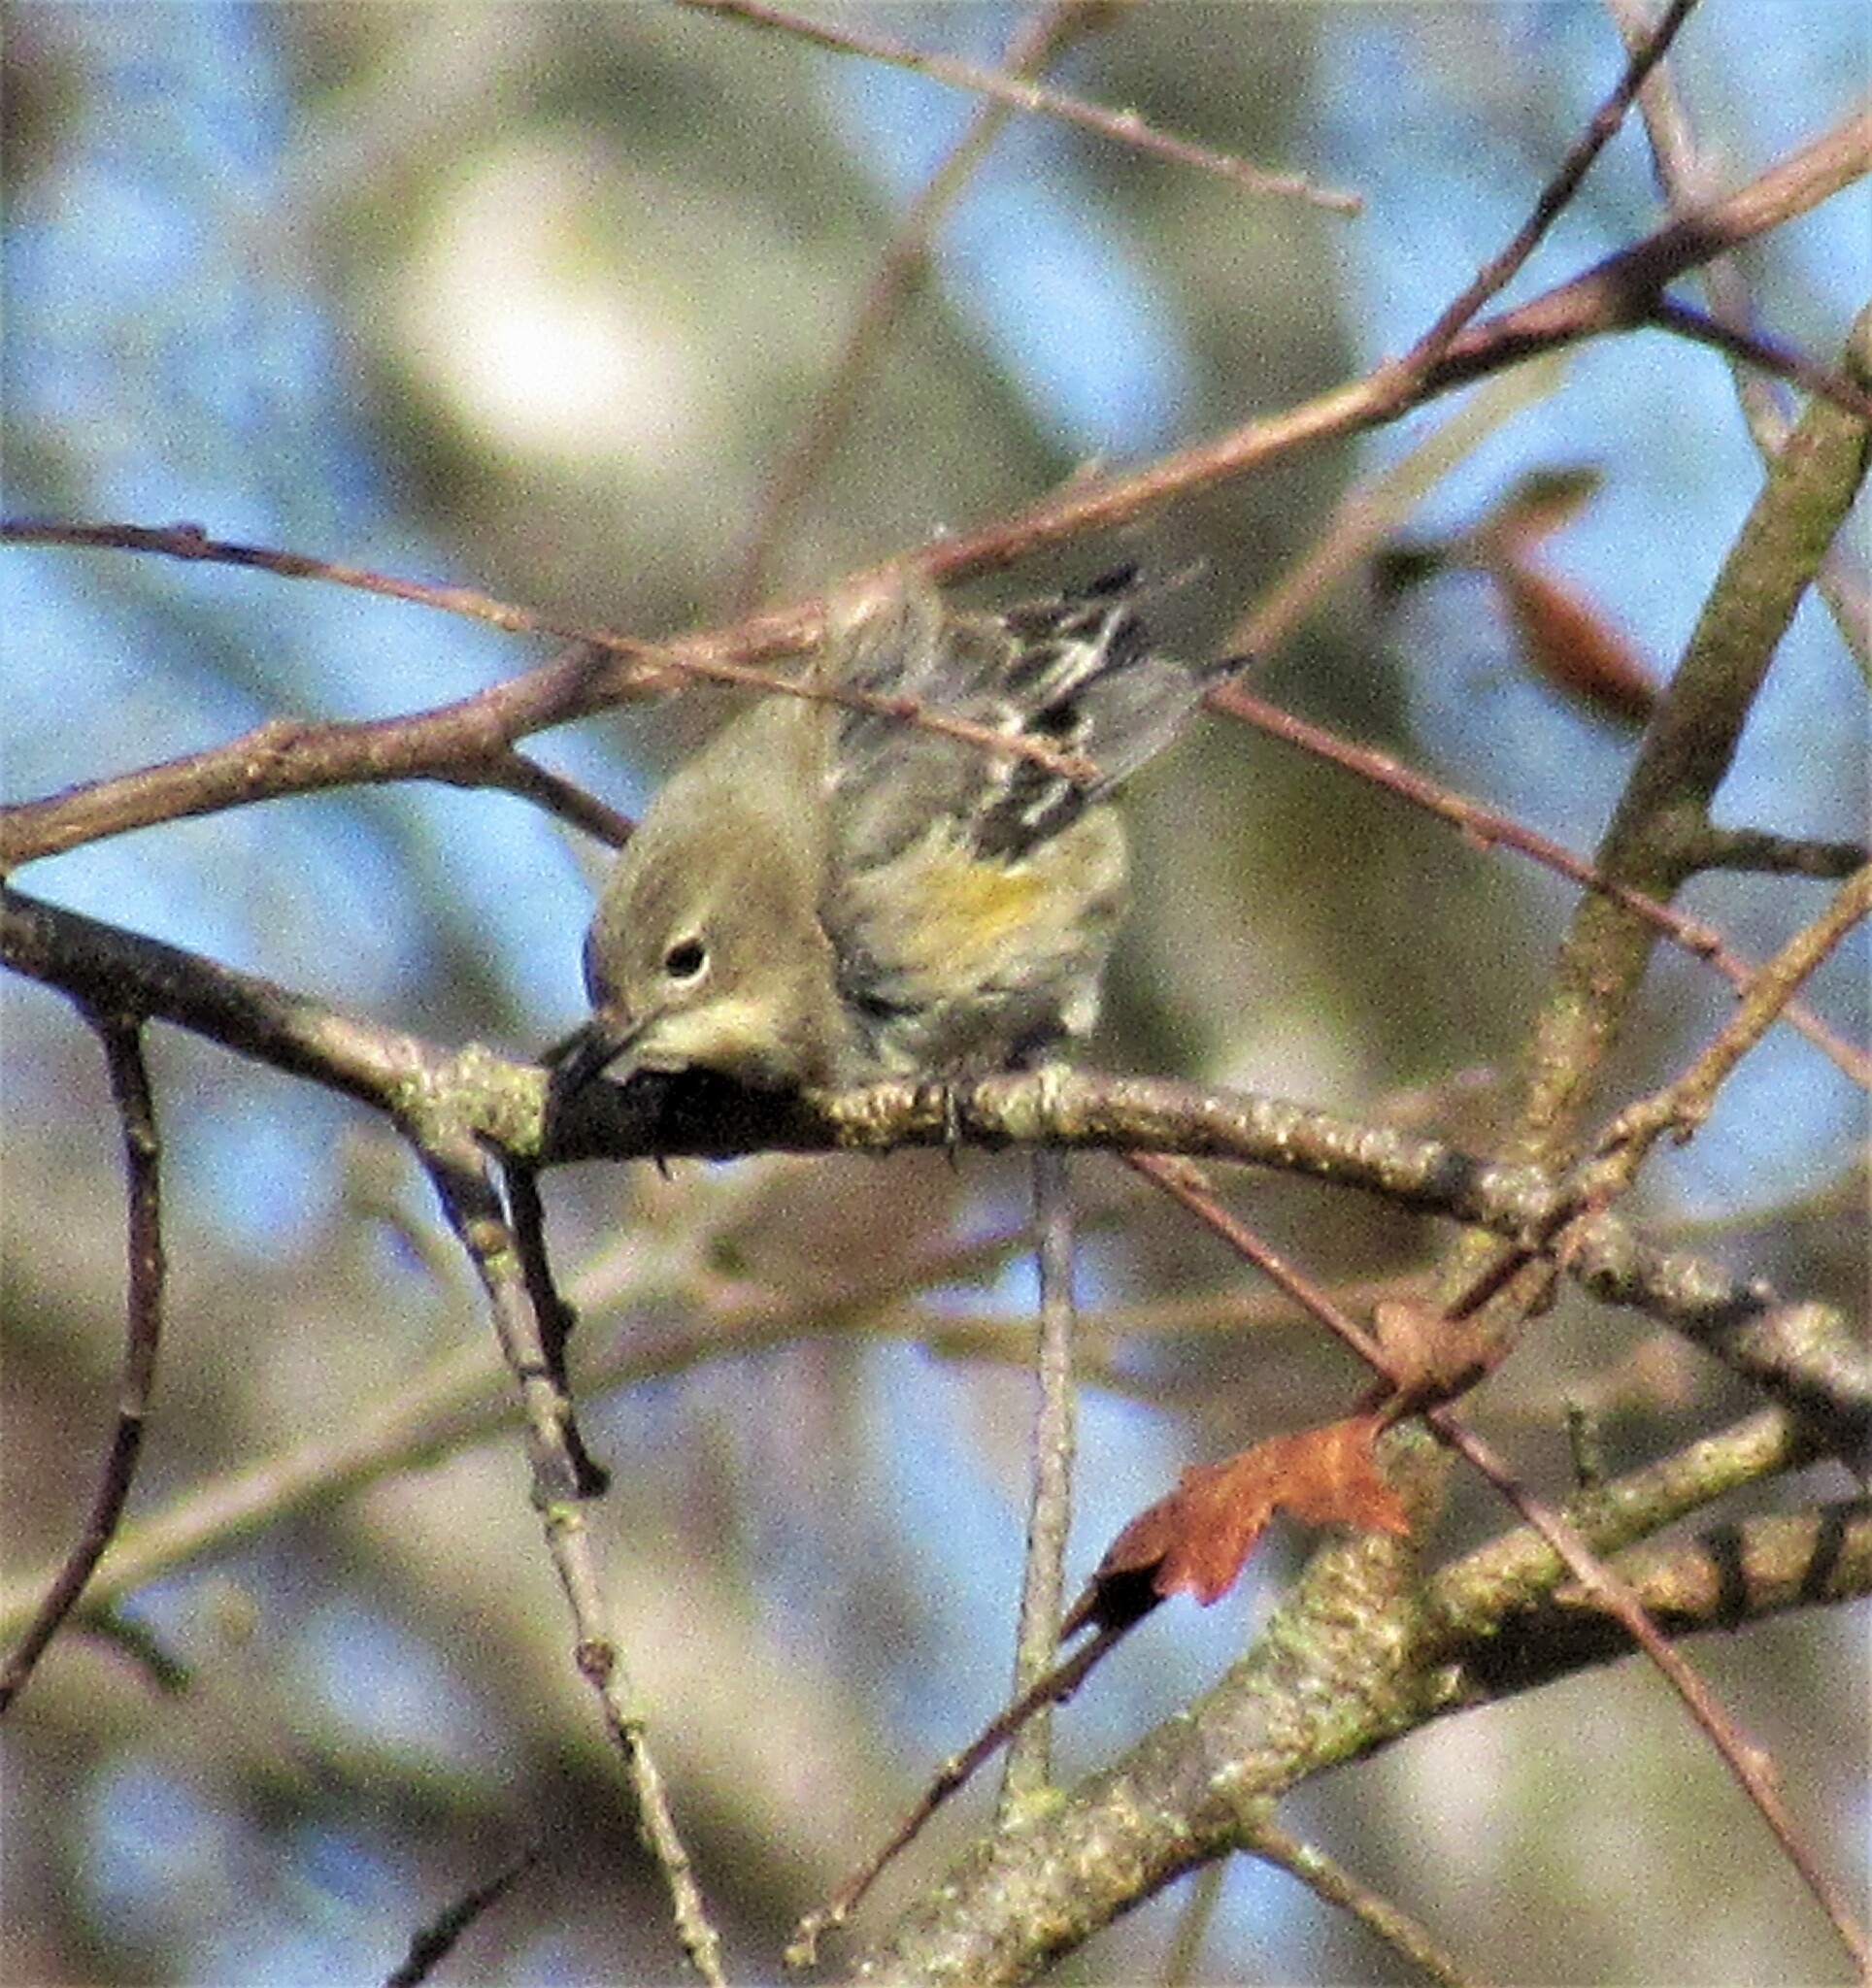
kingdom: Animalia
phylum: Chordata
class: Aves
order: Passeriformes
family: Parulidae
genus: Setophaga
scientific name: Setophaga coronata
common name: Myrtle warbler
